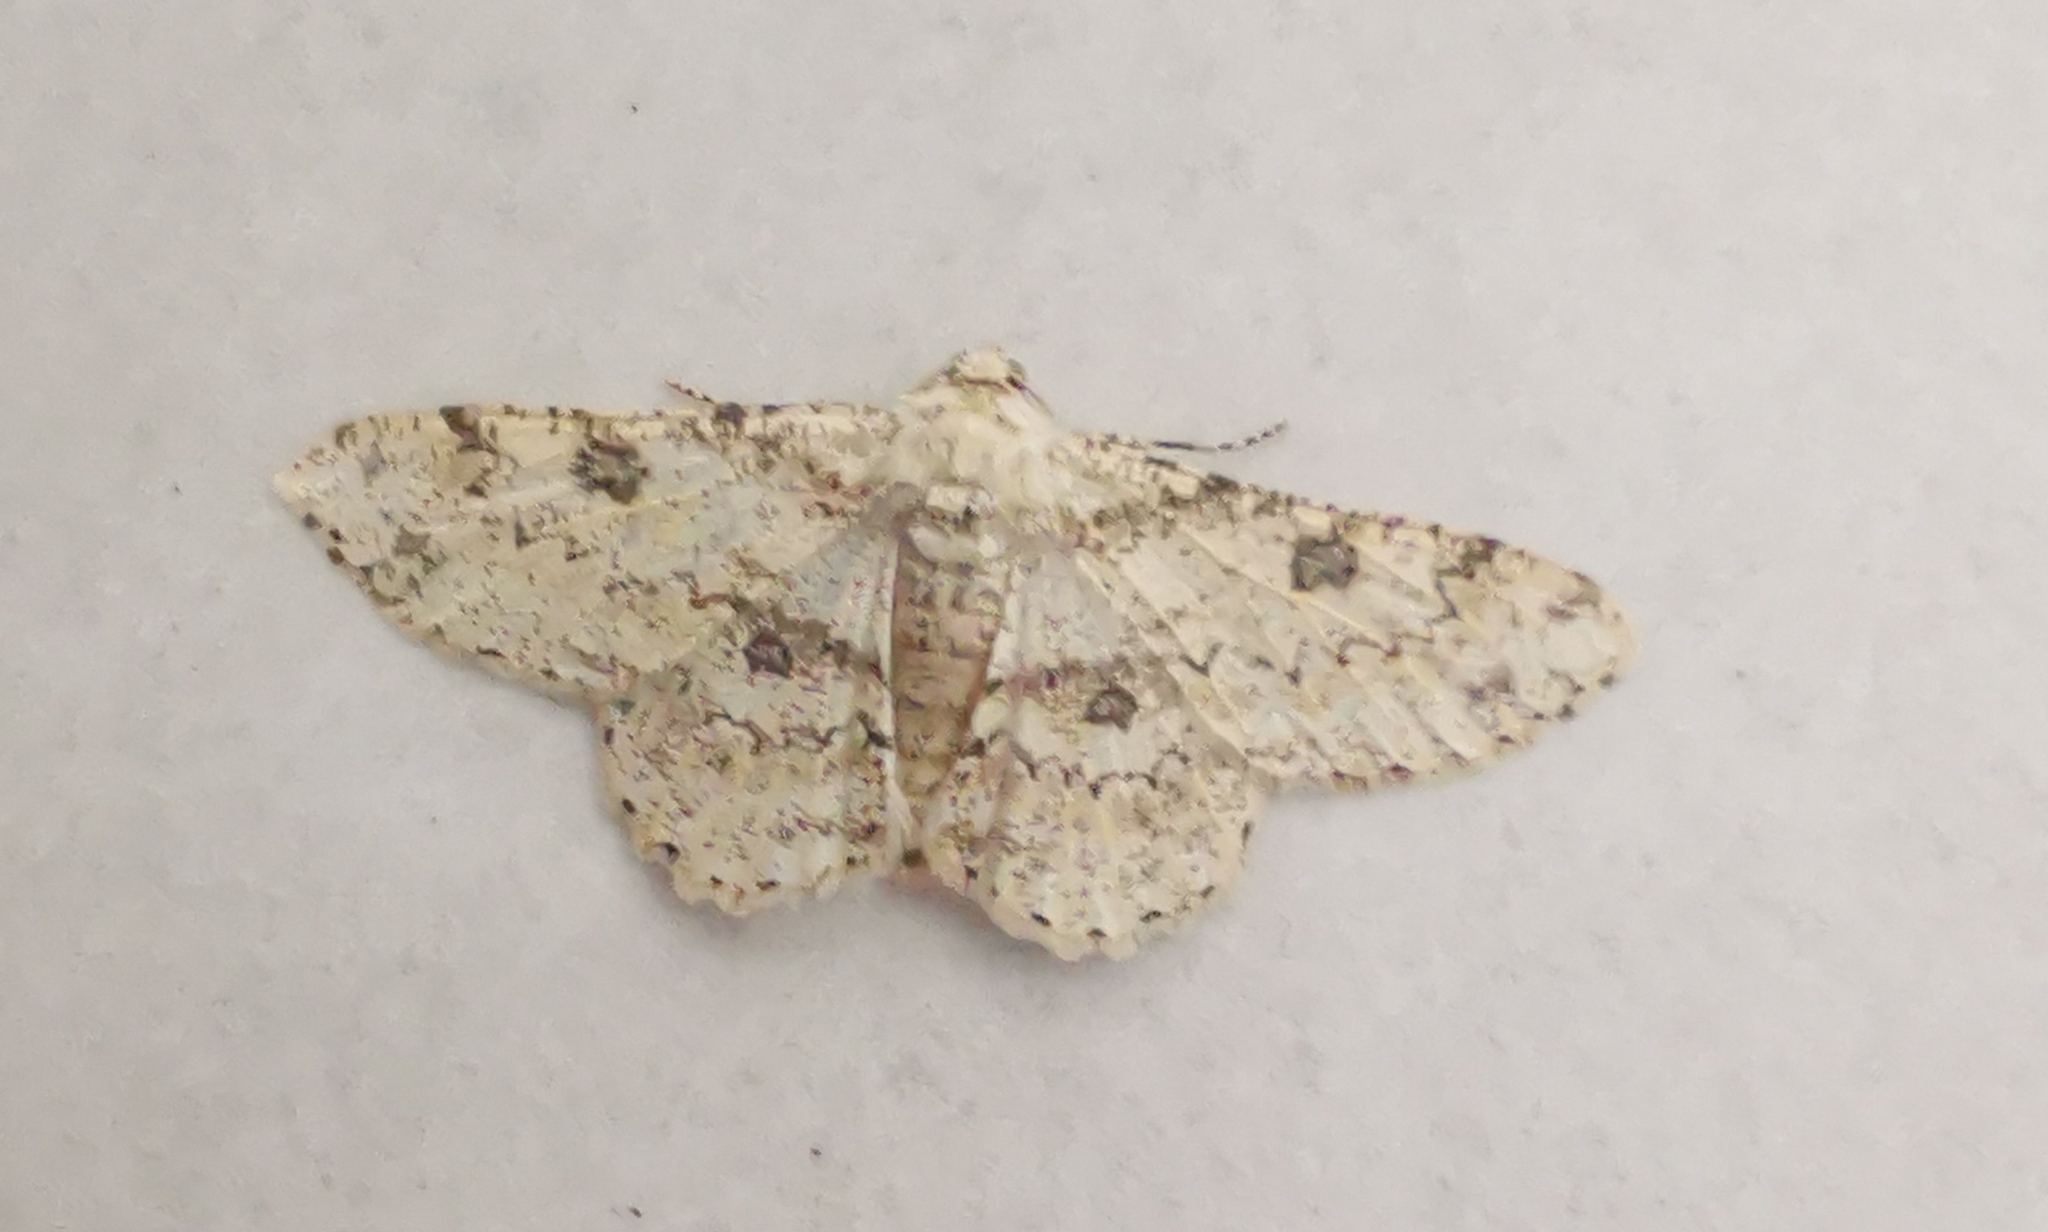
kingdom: Animalia
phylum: Arthropoda
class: Insecta
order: Lepidoptera
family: Geometridae
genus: Ascotis
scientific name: Ascotis selenaria
